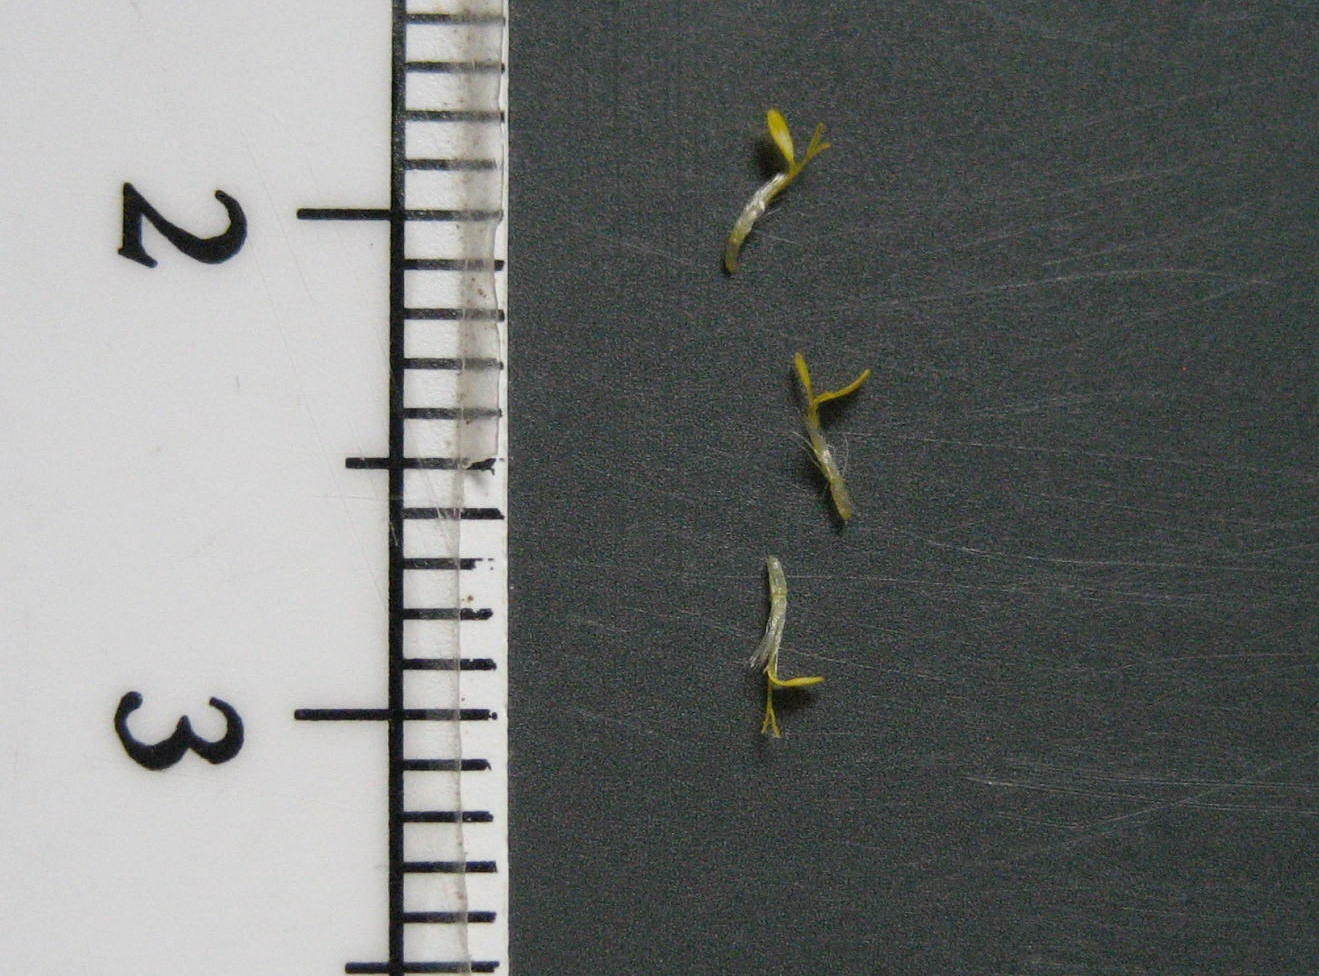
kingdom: Plantae
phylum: Tracheophyta
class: Magnoliopsida
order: Asterales
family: Asteraceae
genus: Solidago
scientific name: Solidago canadensis
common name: Canada goldenrod
